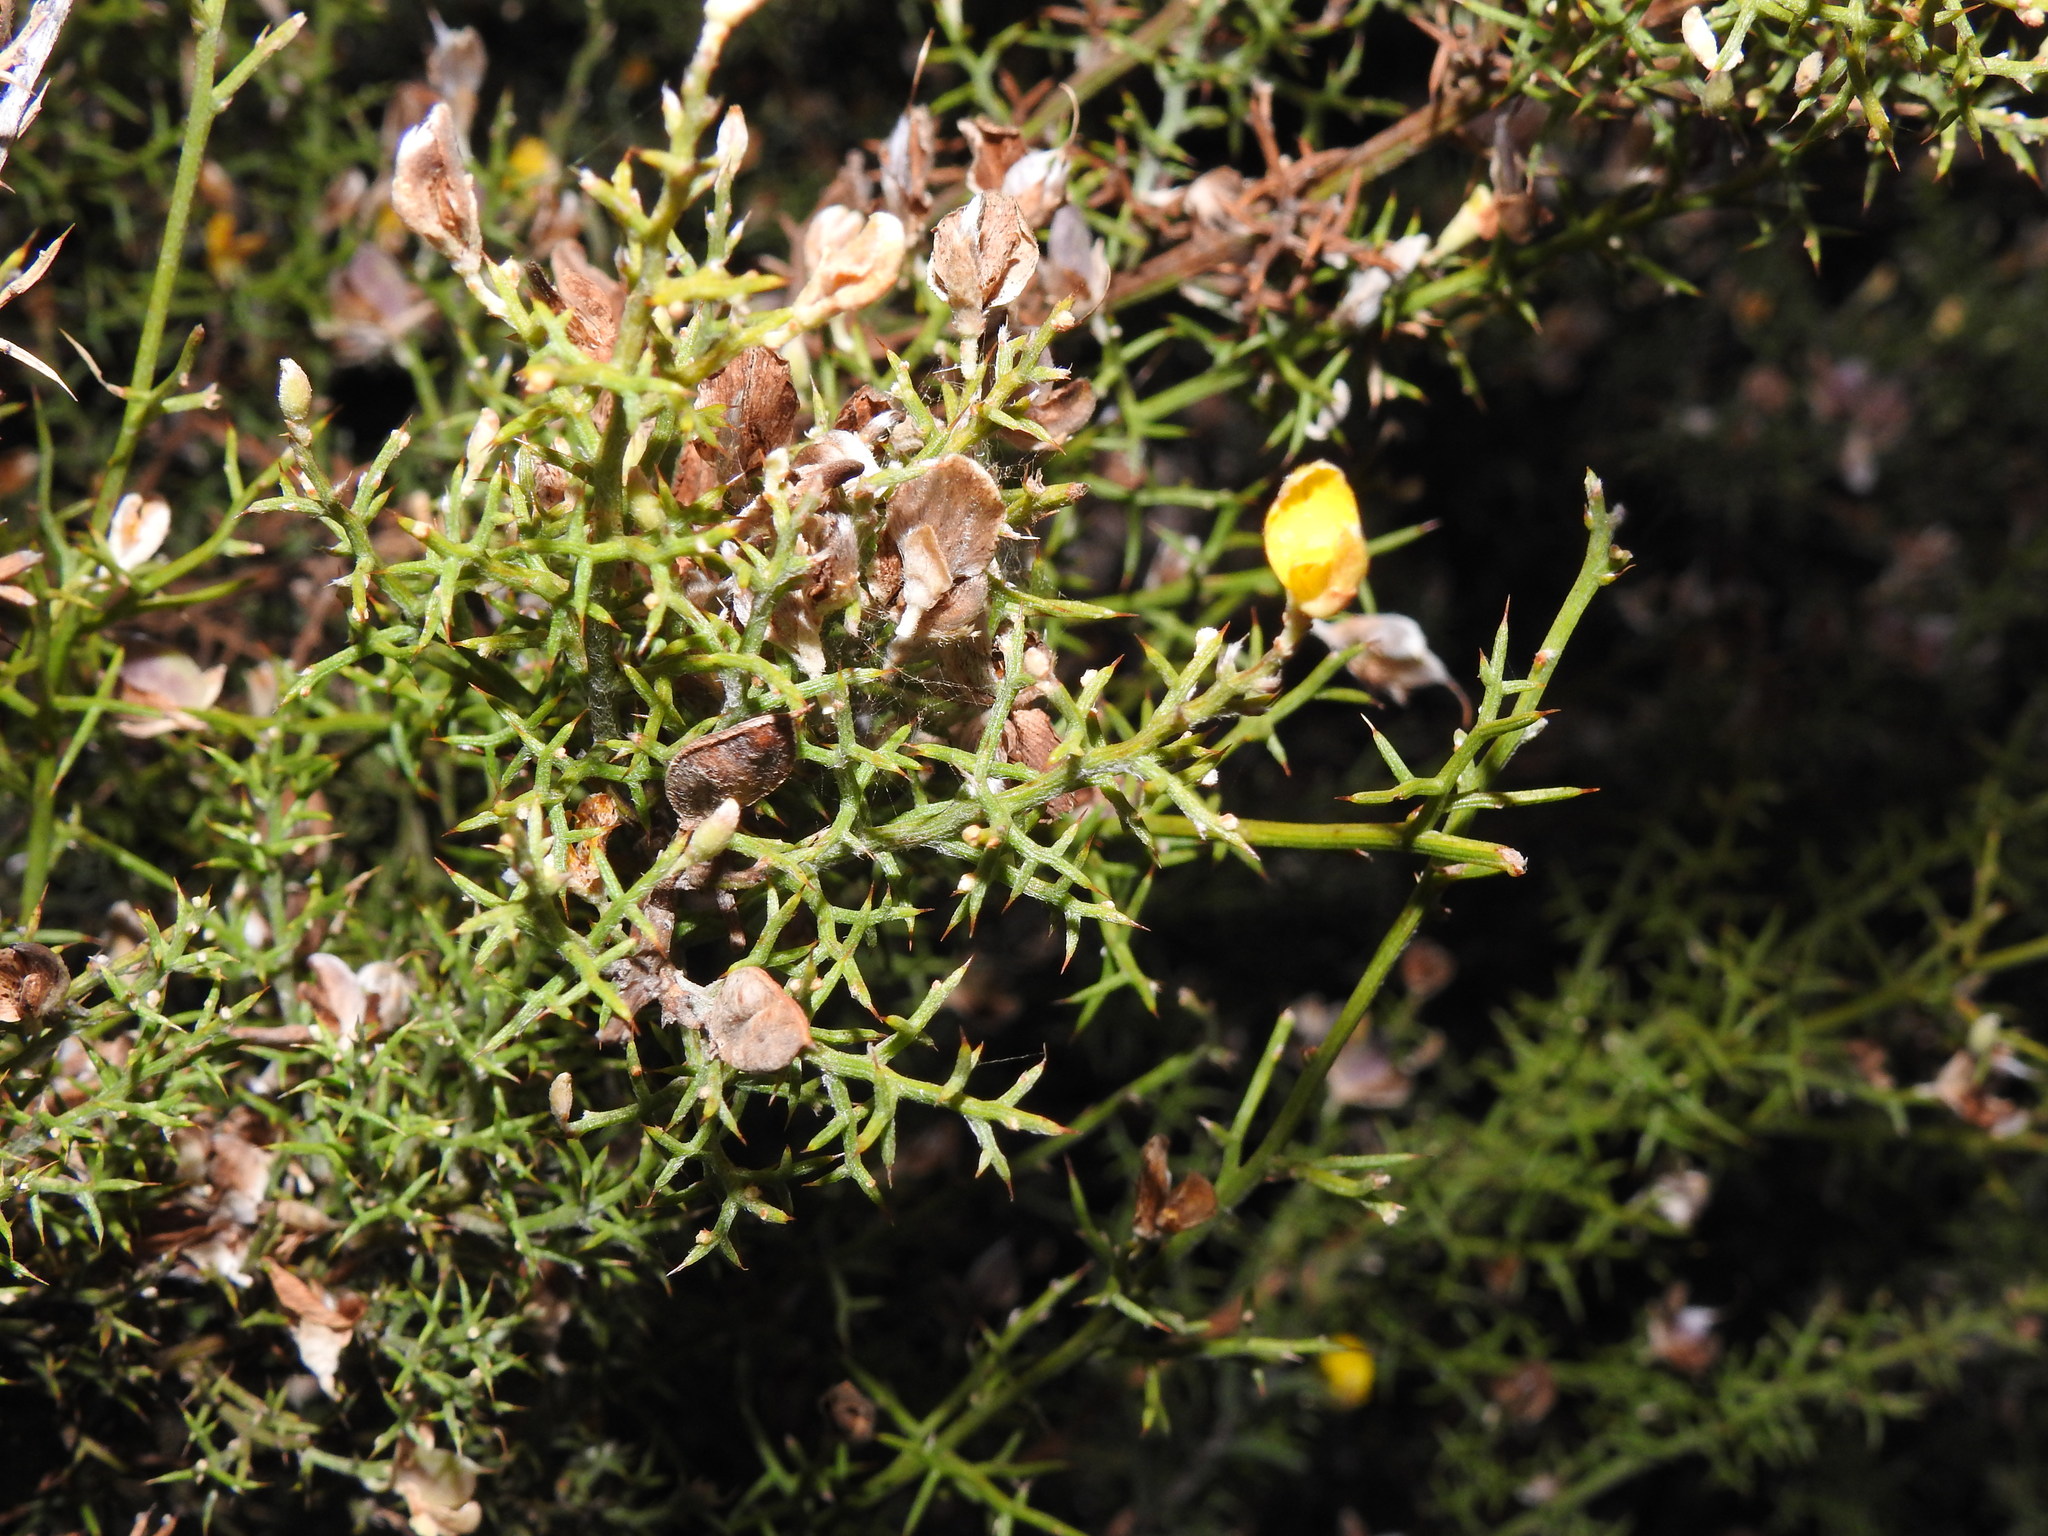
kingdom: Plantae
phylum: Tracheophyta
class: Magnoliopsida
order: Fabales
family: Fabaceae
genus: Stauracanthus
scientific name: Stauracanthus boivinii
